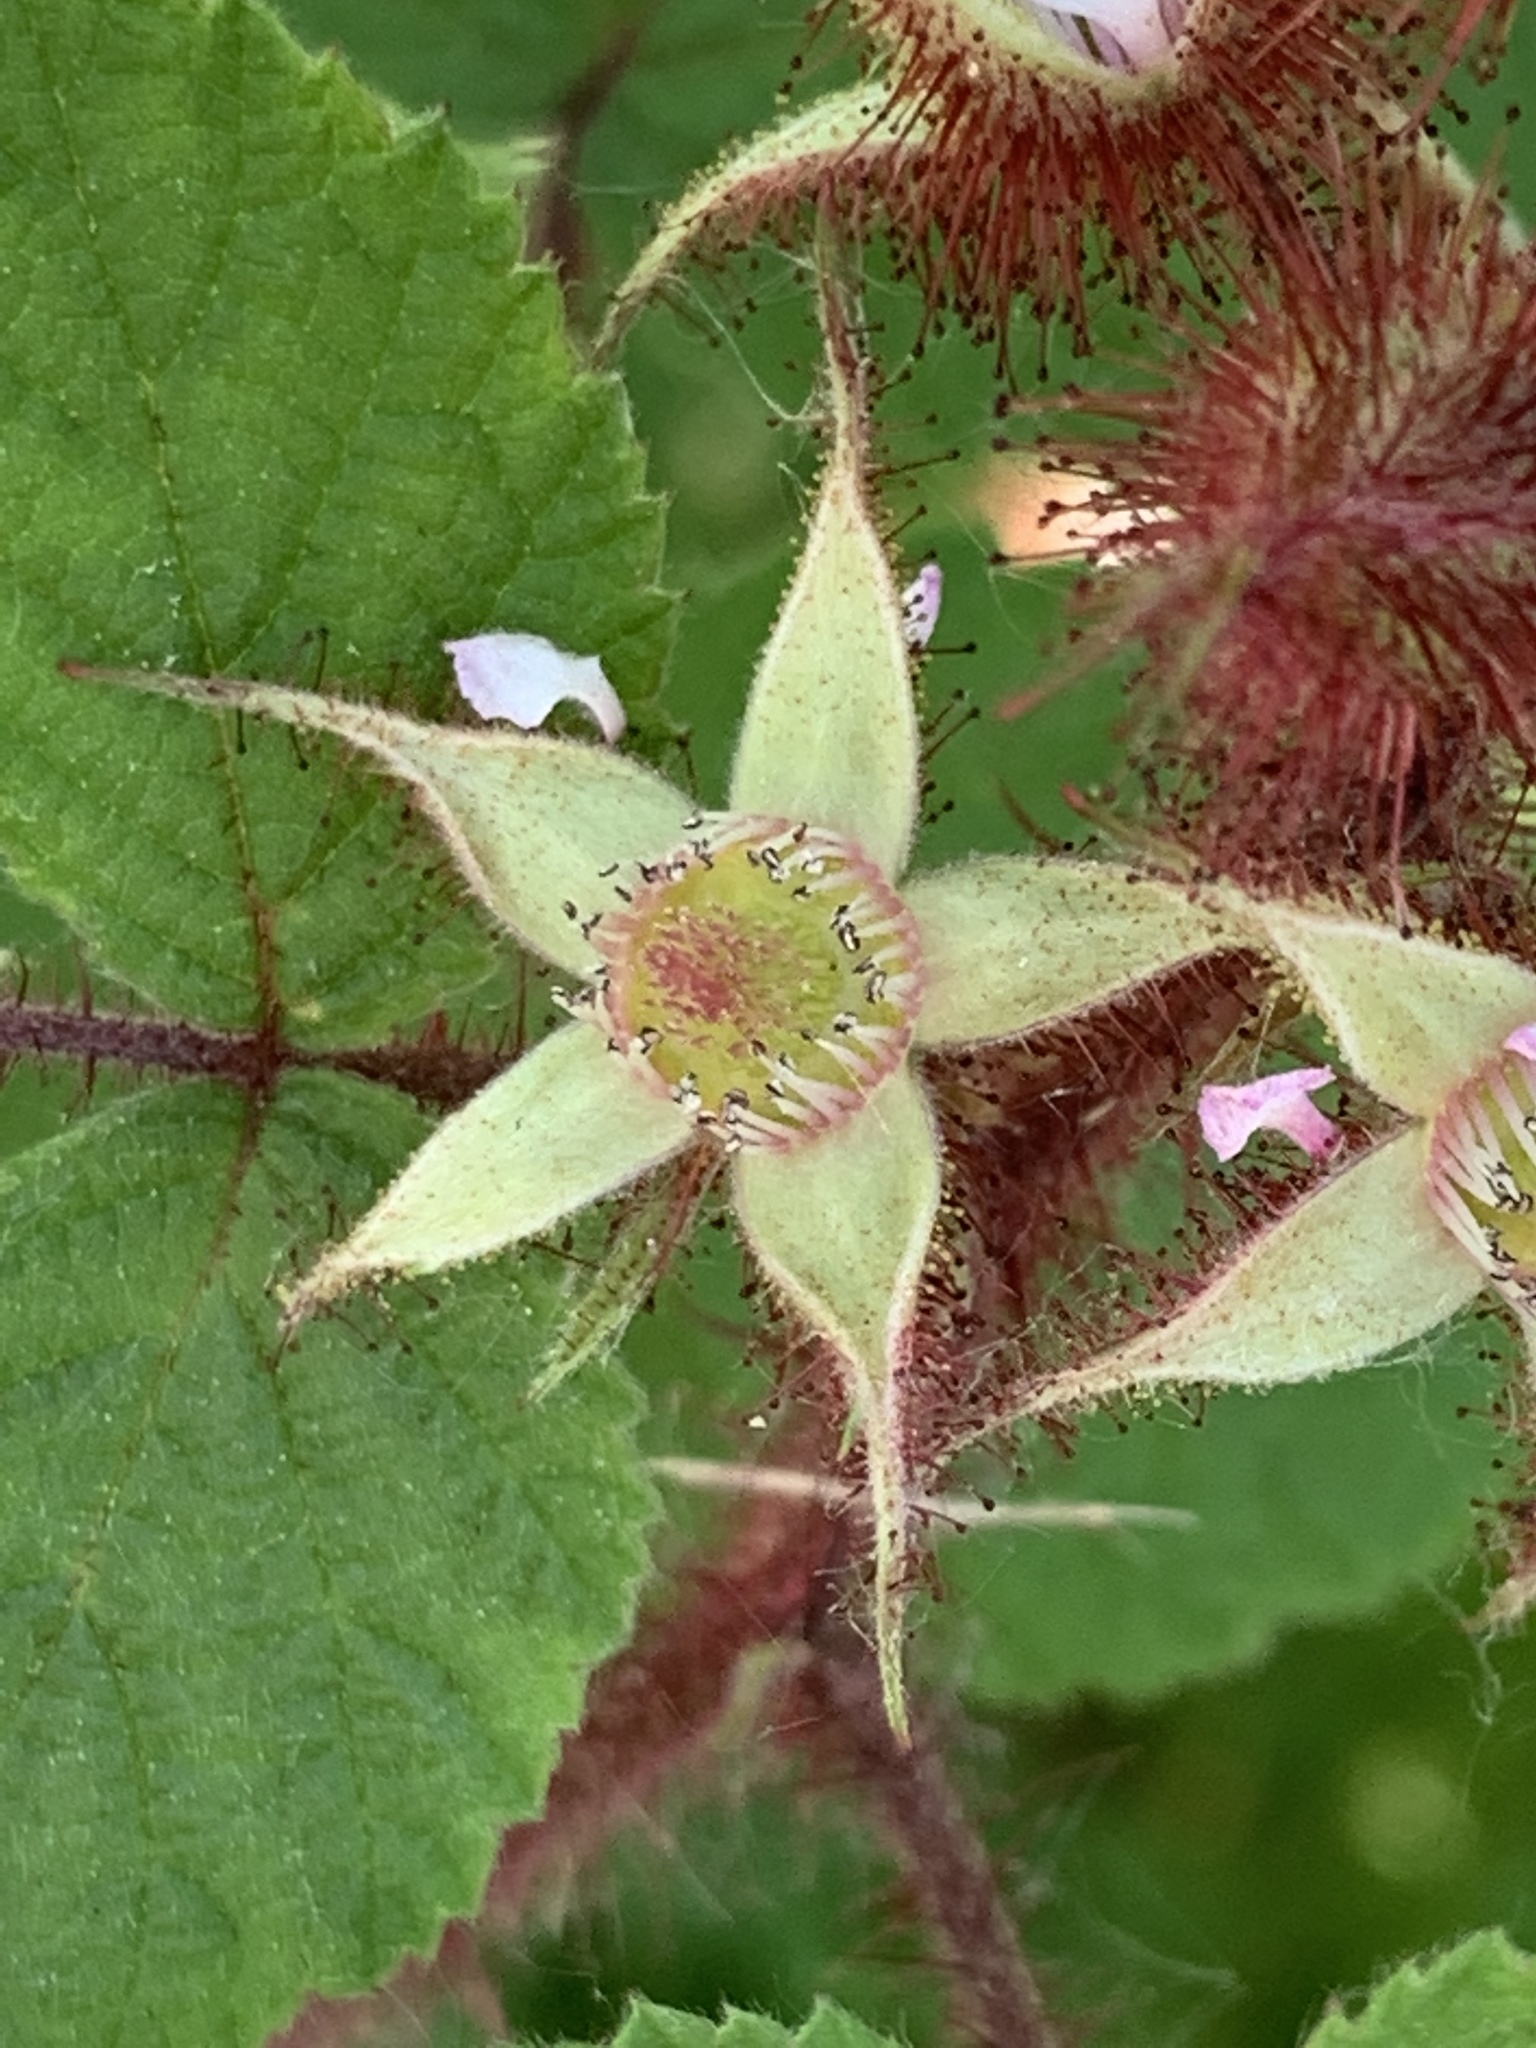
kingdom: Plantae
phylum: Tracheophyta
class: Magnoliopsida
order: Rosales
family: Rosaceae
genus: Rubus
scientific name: Rubus phoenicolasius
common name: Japanese wineberry
